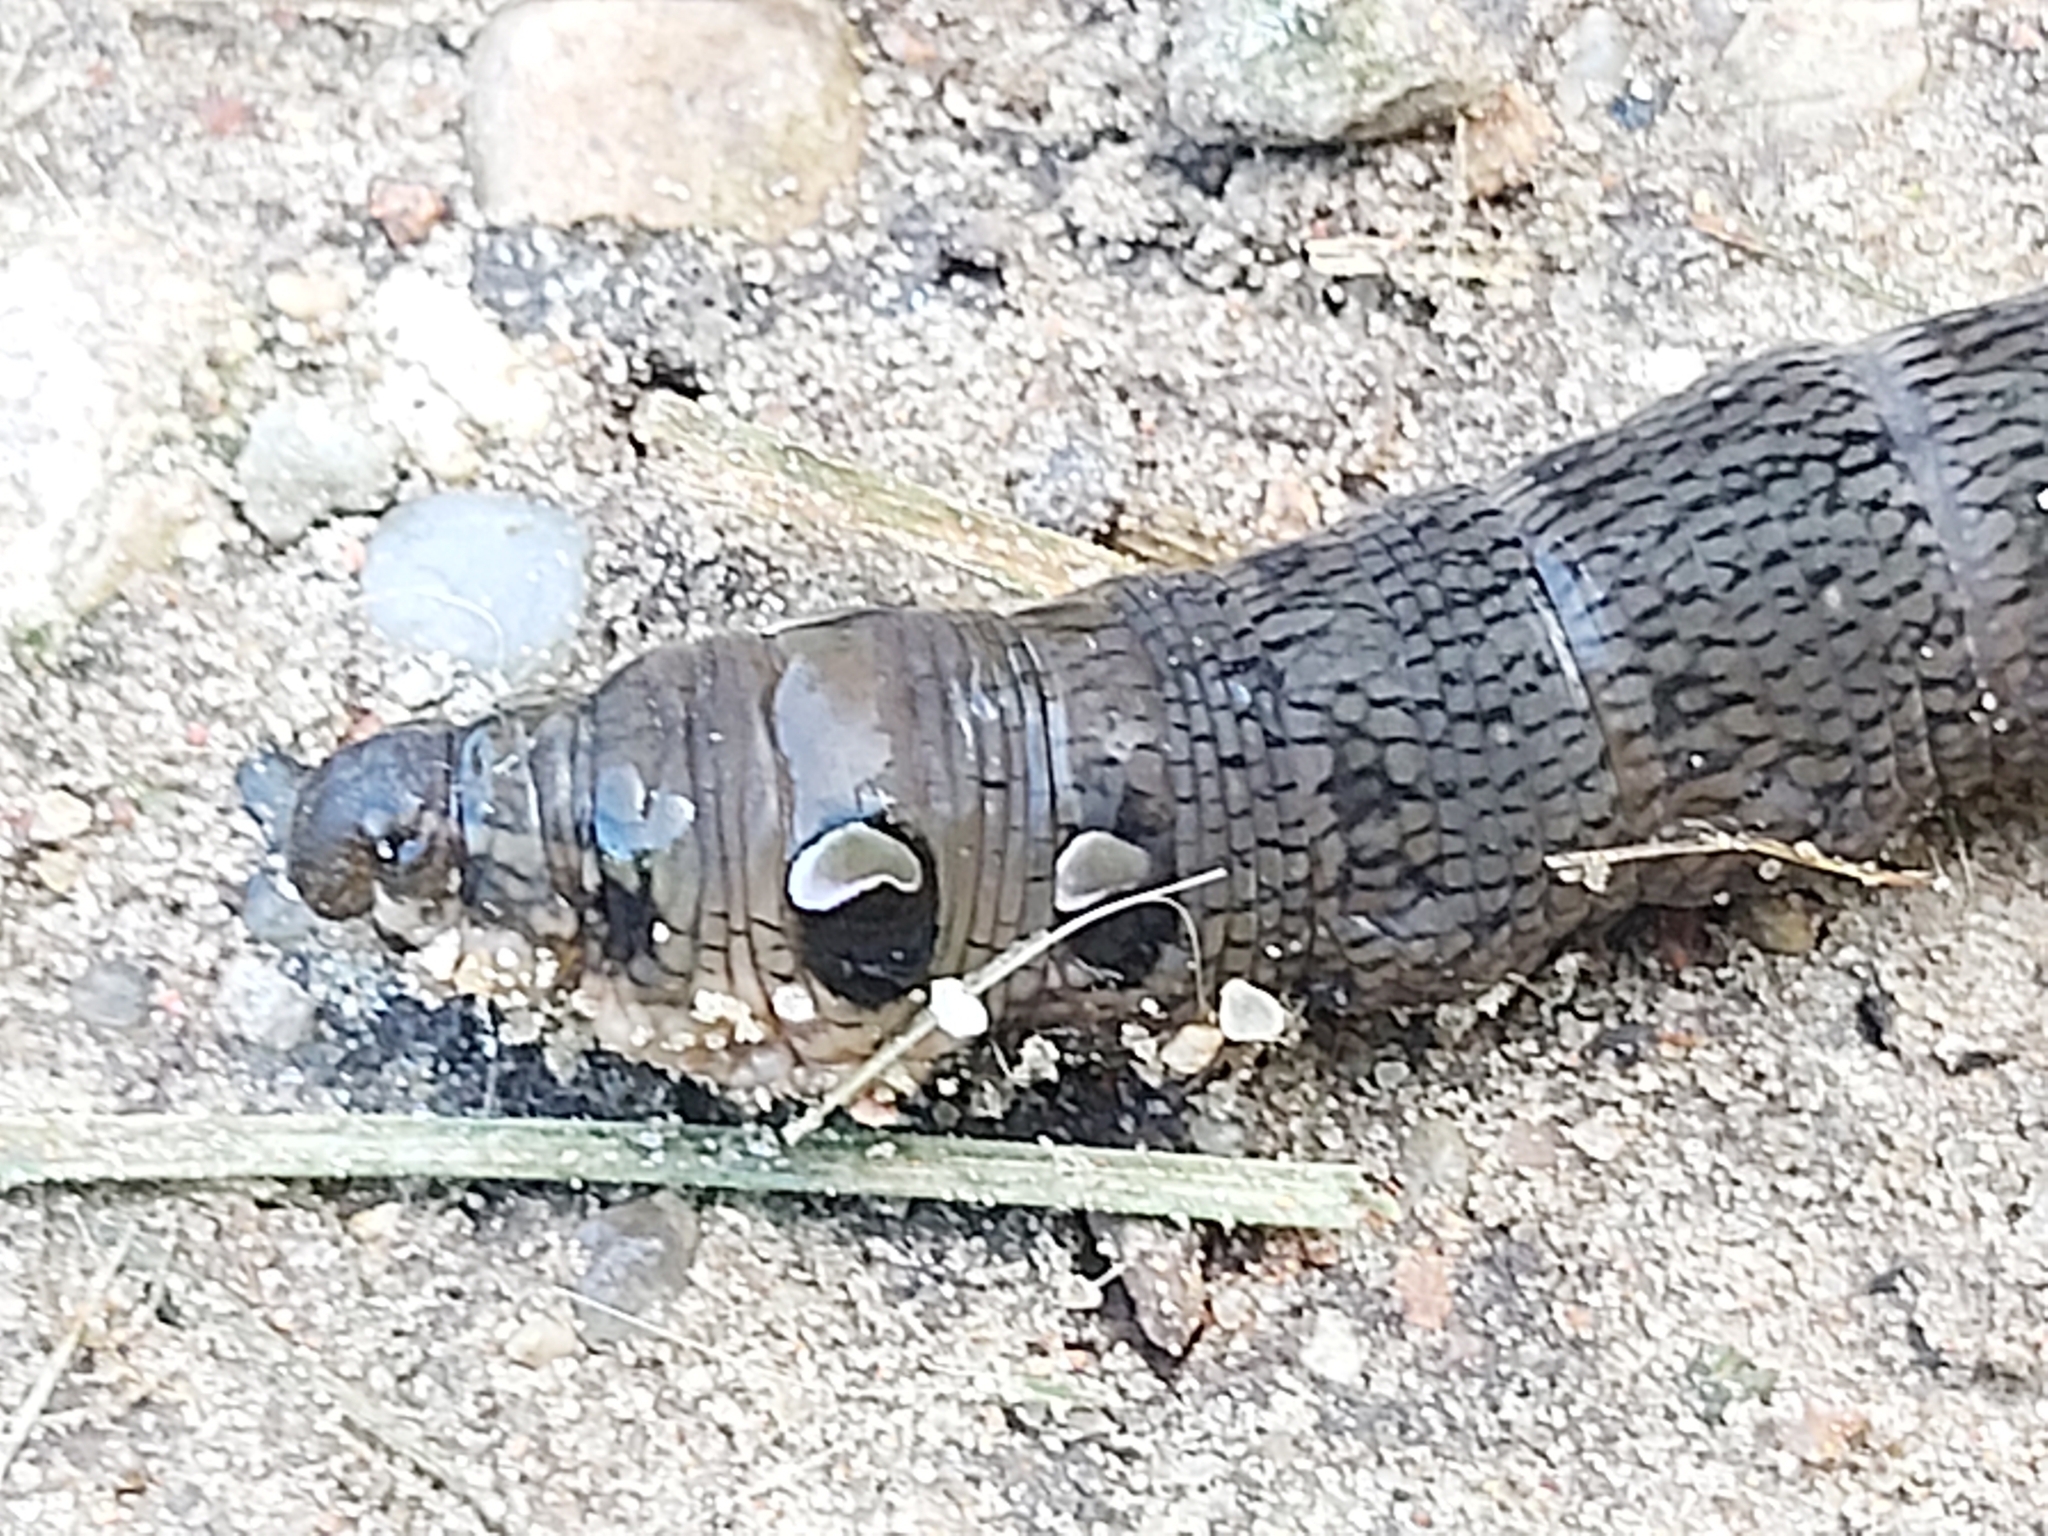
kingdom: Animalia
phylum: Arthropoda
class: Insecta
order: Lepidoptera
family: Sphingidae
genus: Deilephila
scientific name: Deilephila elpenor
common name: Elephant hawk-moth
